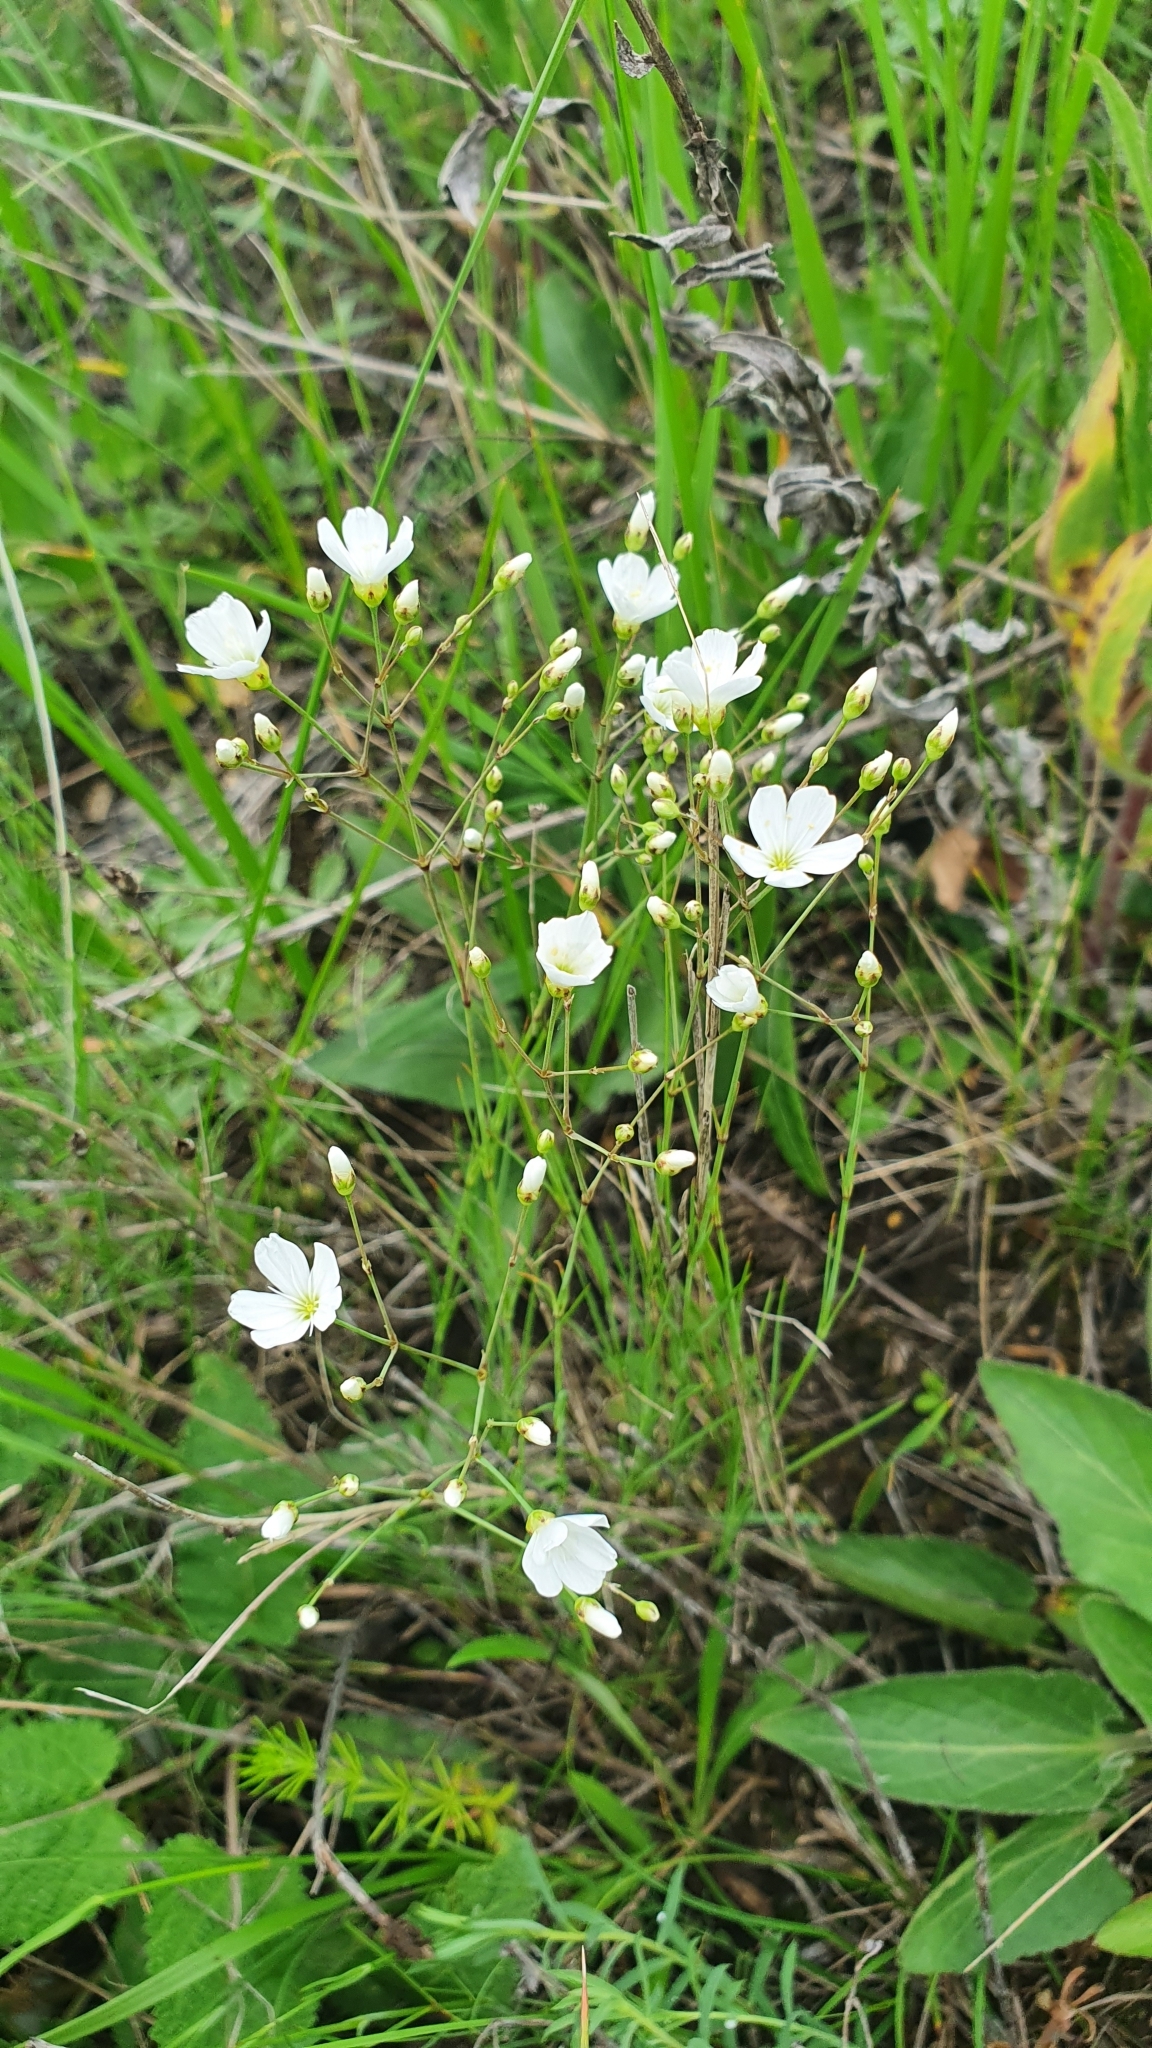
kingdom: Plantae
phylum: Tracheophyta
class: Magnoliopsida
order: Caryophyllales
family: Caryophyllaceae
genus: Eremogone
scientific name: Eremogone saxatilis
